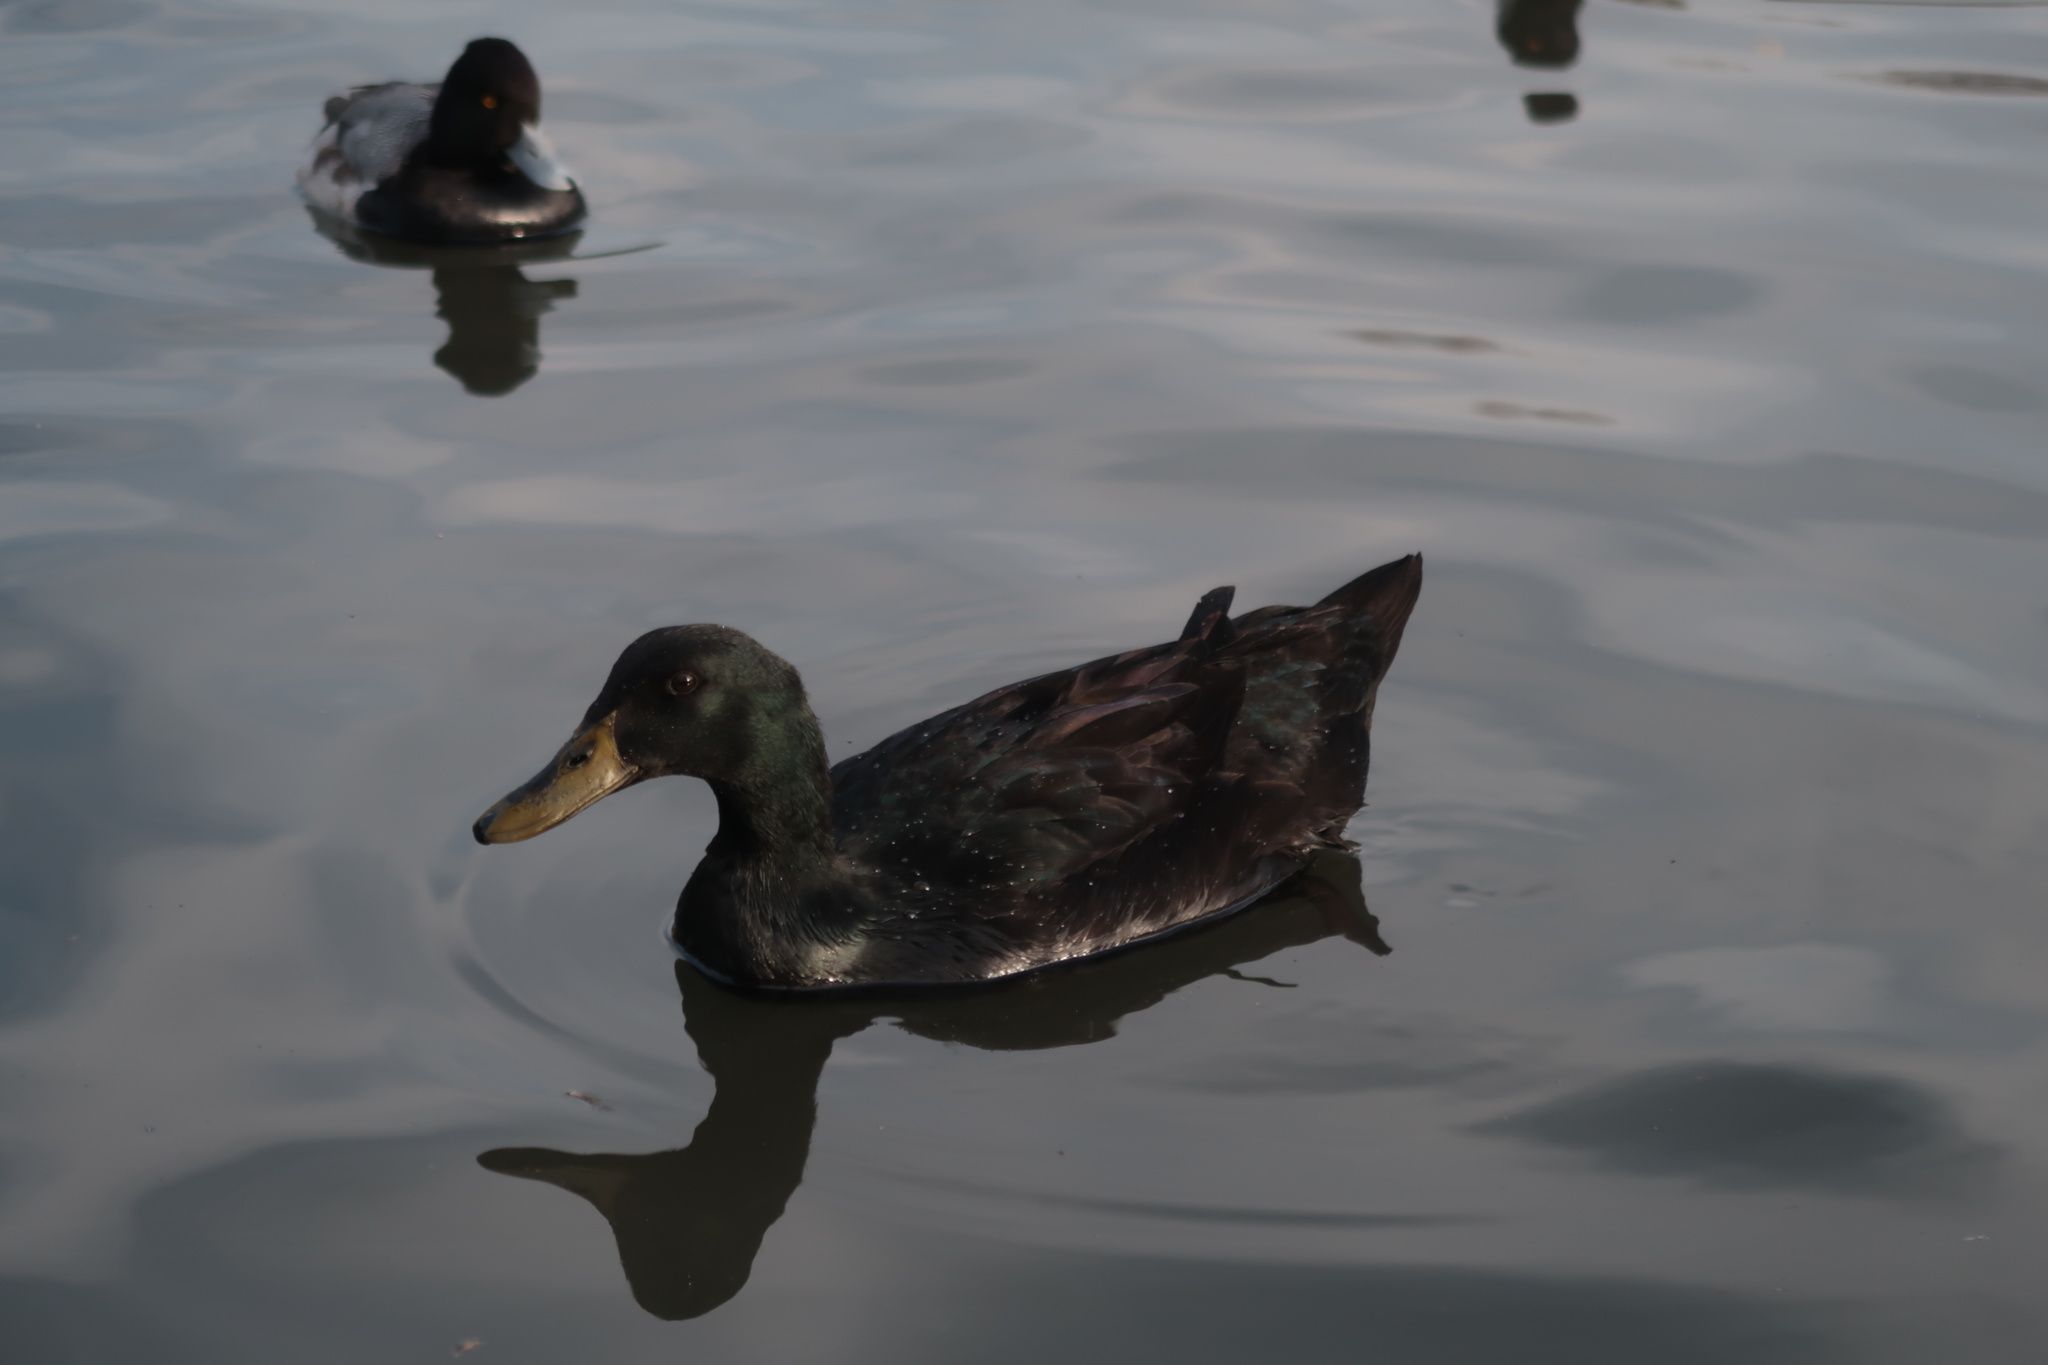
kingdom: Animalia
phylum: Chordata
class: Aves
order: Anseriformes
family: Anatidae
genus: Anas
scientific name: Anas platyrhynchos
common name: Mallard
